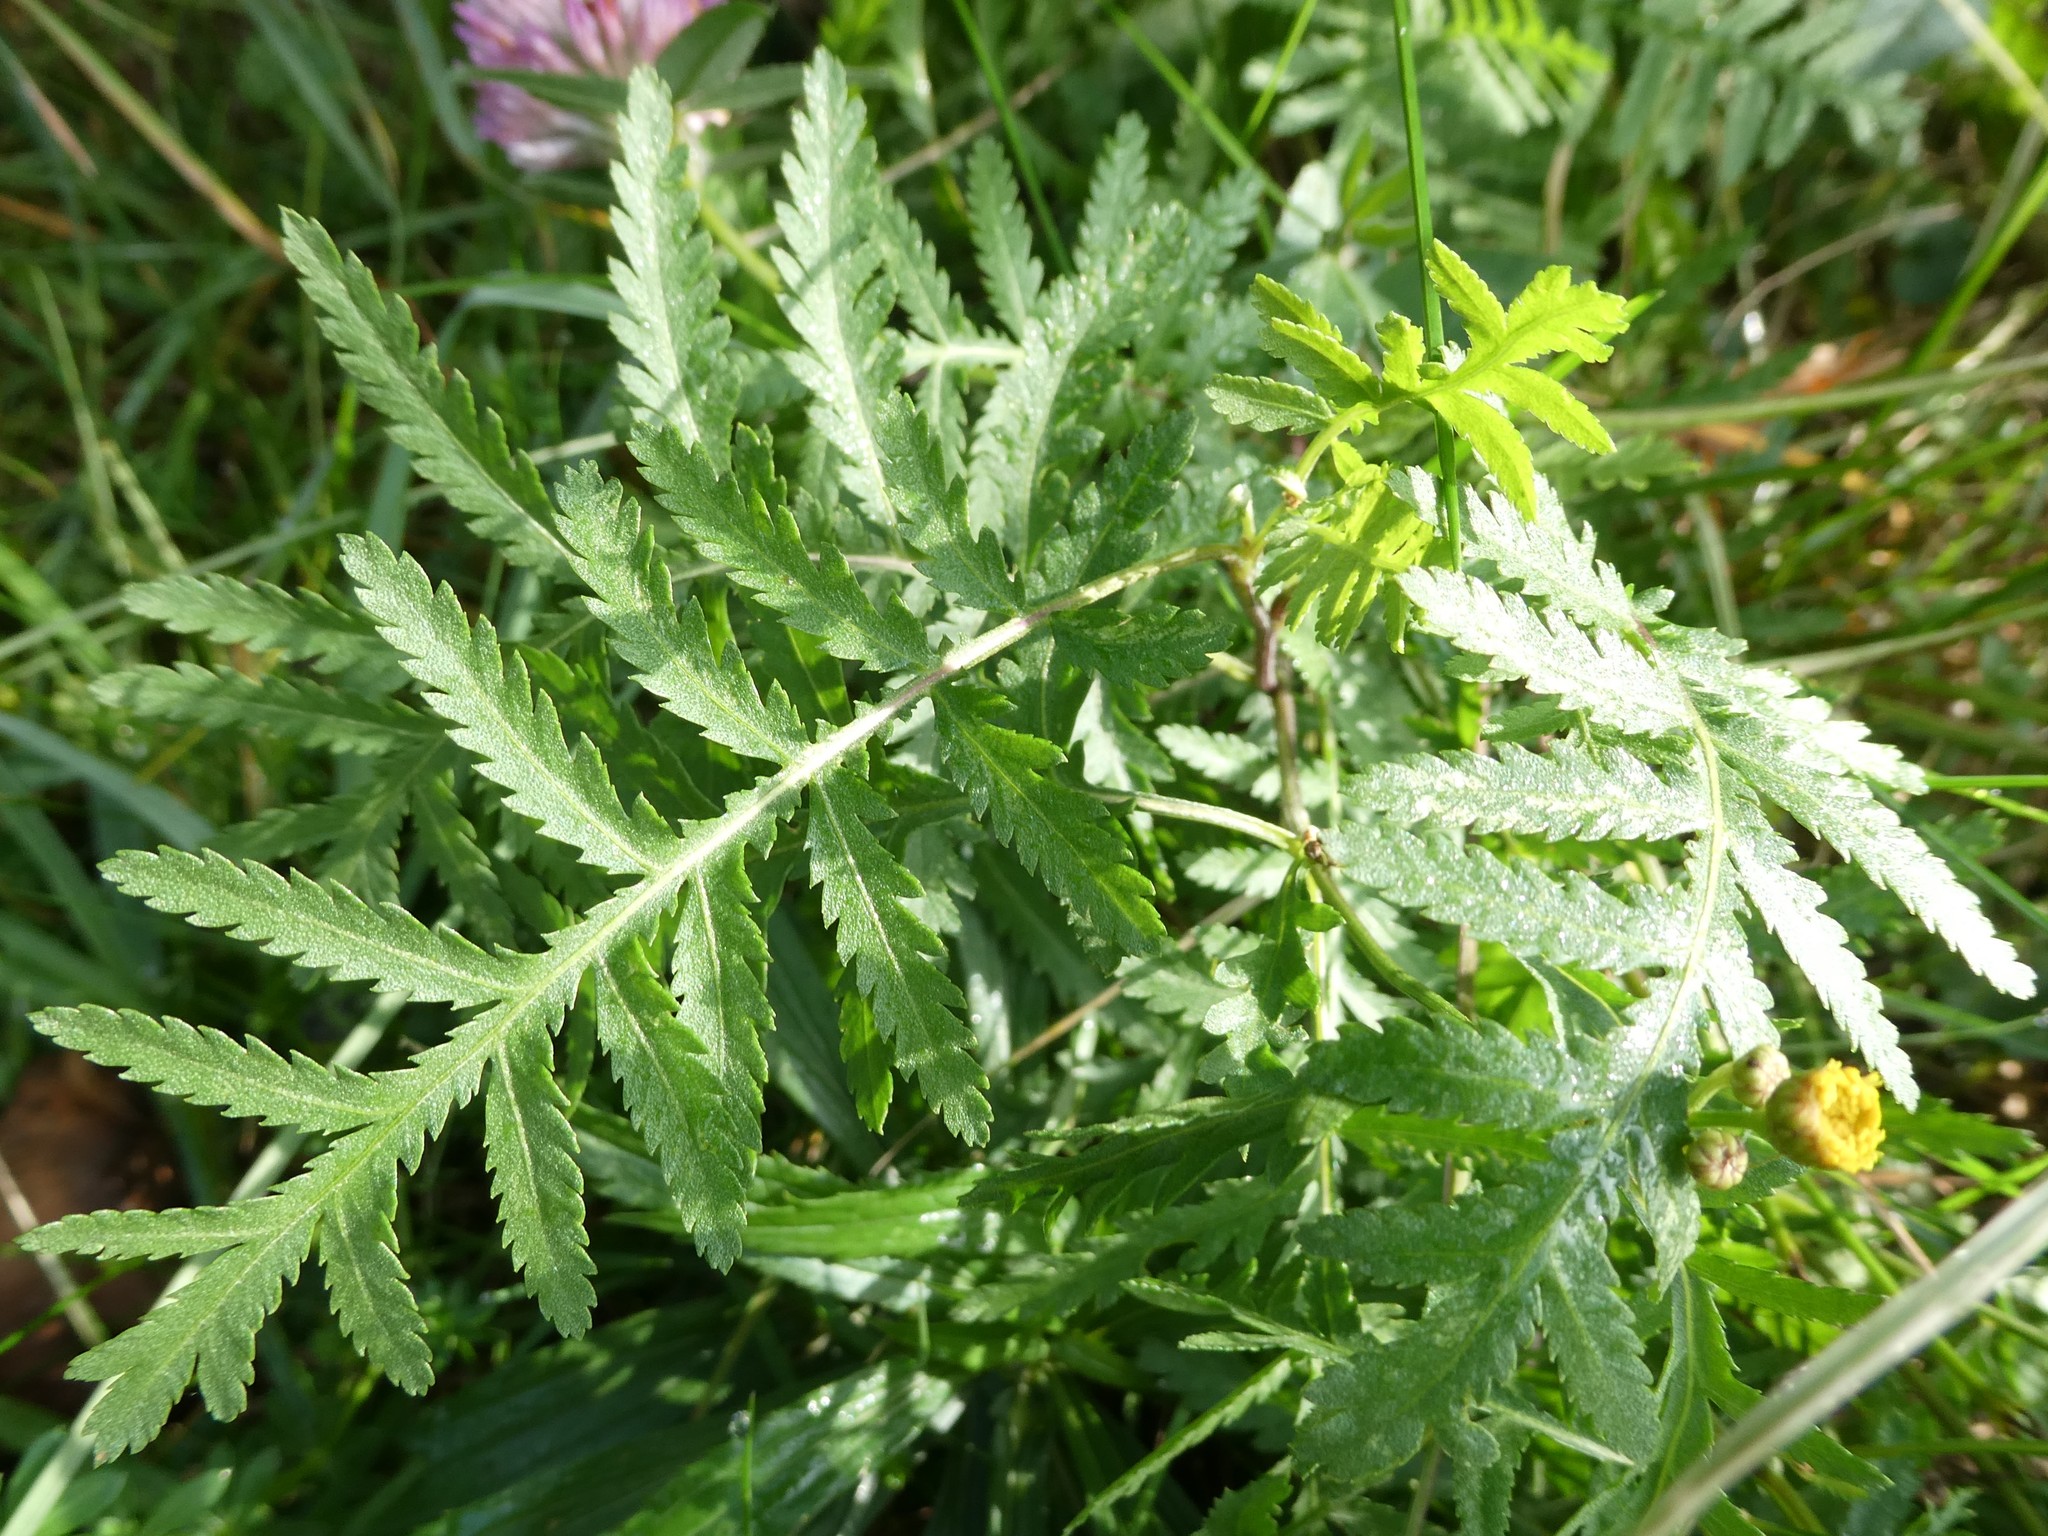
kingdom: Plantae
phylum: Tracheophyta
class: Magnoliopsida
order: Asterales
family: Asteraceae
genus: Tanacetum
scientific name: Tanacetum vulgare
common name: Common tansy
